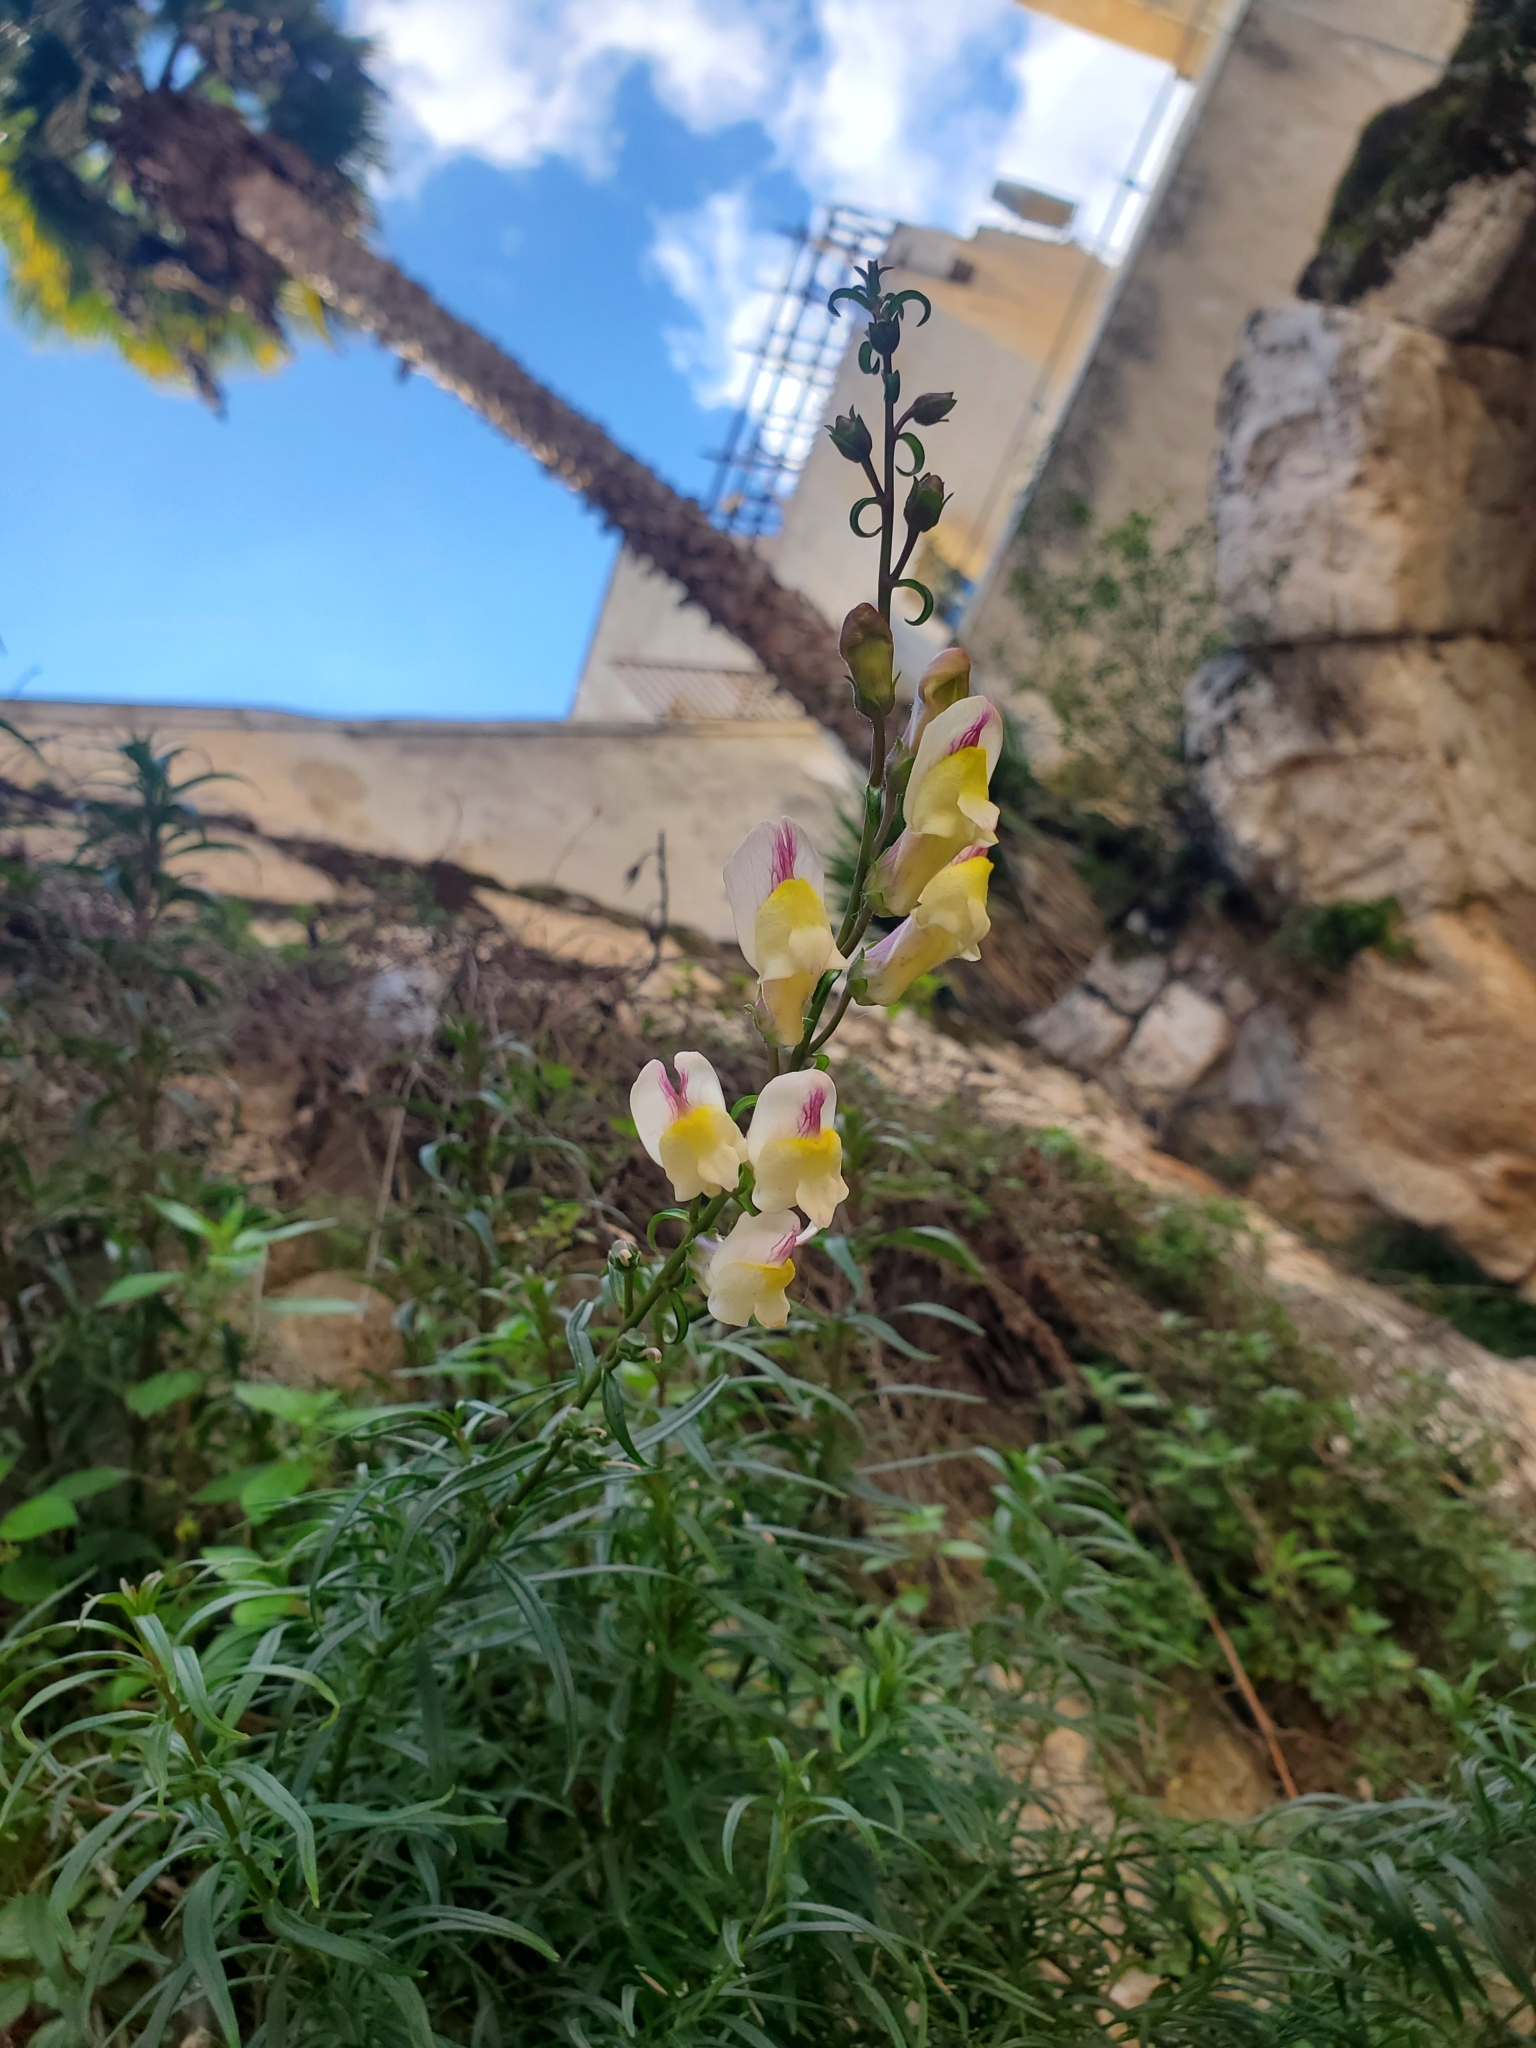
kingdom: Plantae
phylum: Tracheophyta
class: Magnoliopsida
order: Lamiales
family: Plantaginaceae
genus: Antirrhinum
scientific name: Antirrhinum siculum
